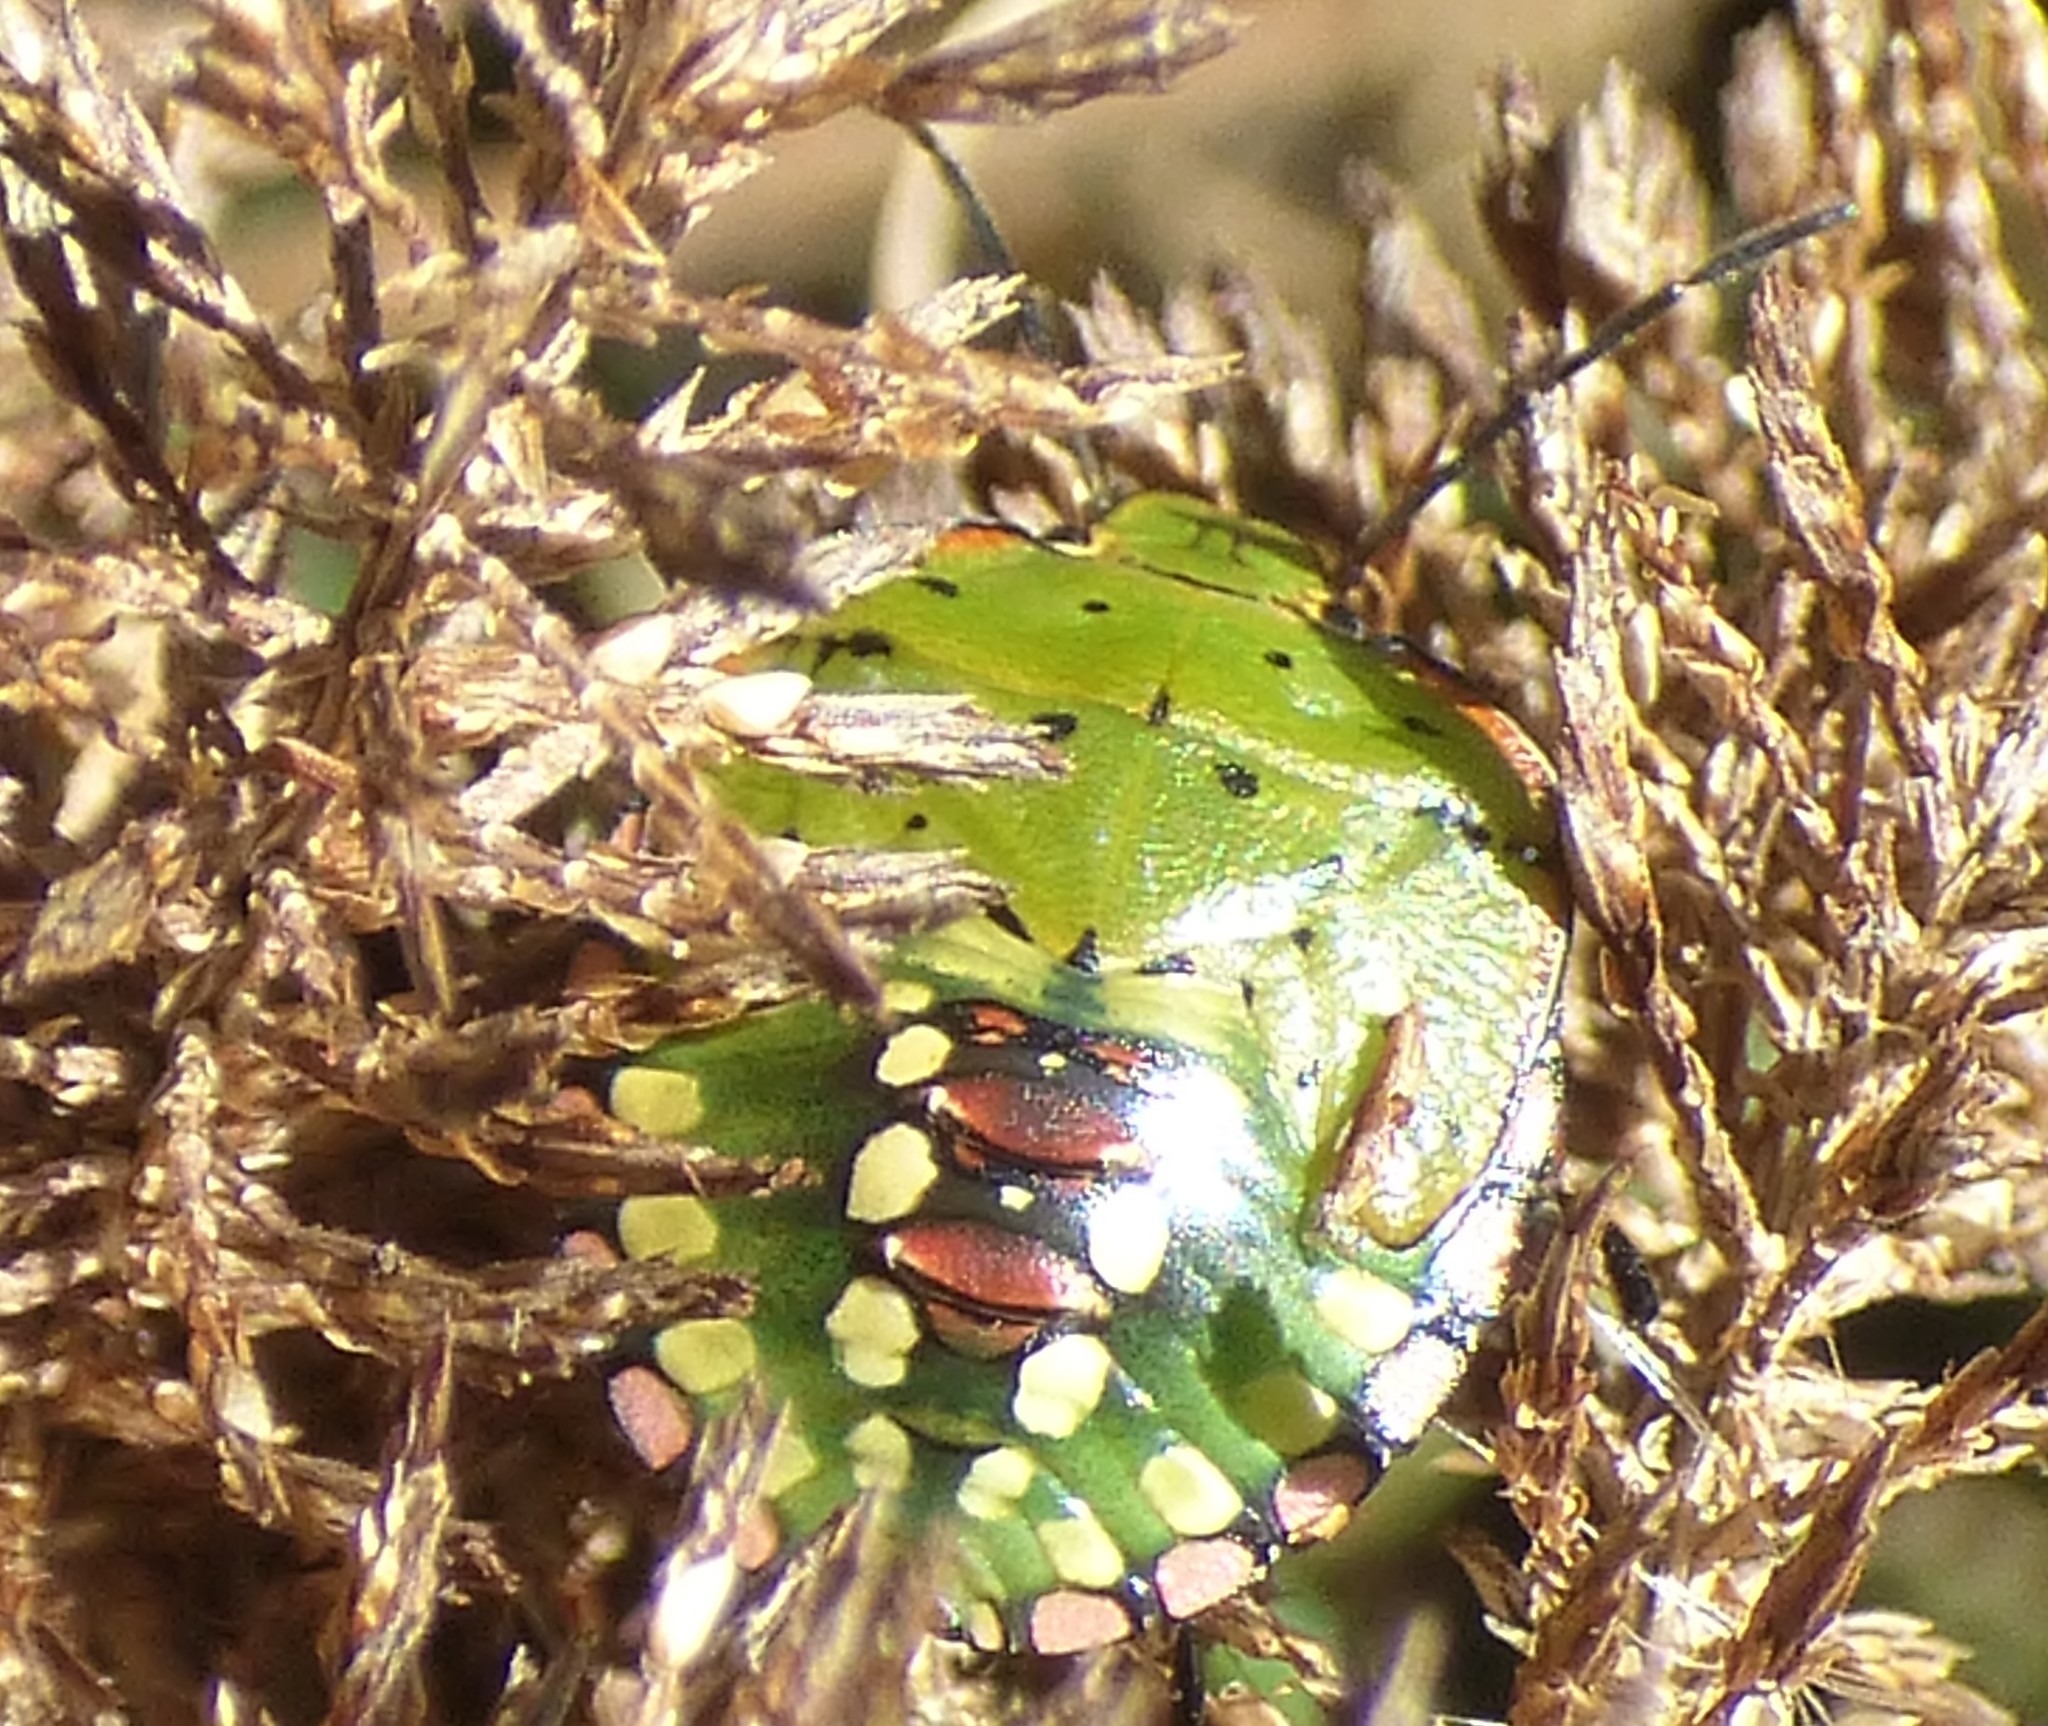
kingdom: Animalia
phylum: Arthropoda
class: Insecta
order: Hemiptera
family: Pentatomidae
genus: Nezara
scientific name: Nezara viridula
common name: Southern green stink bug
